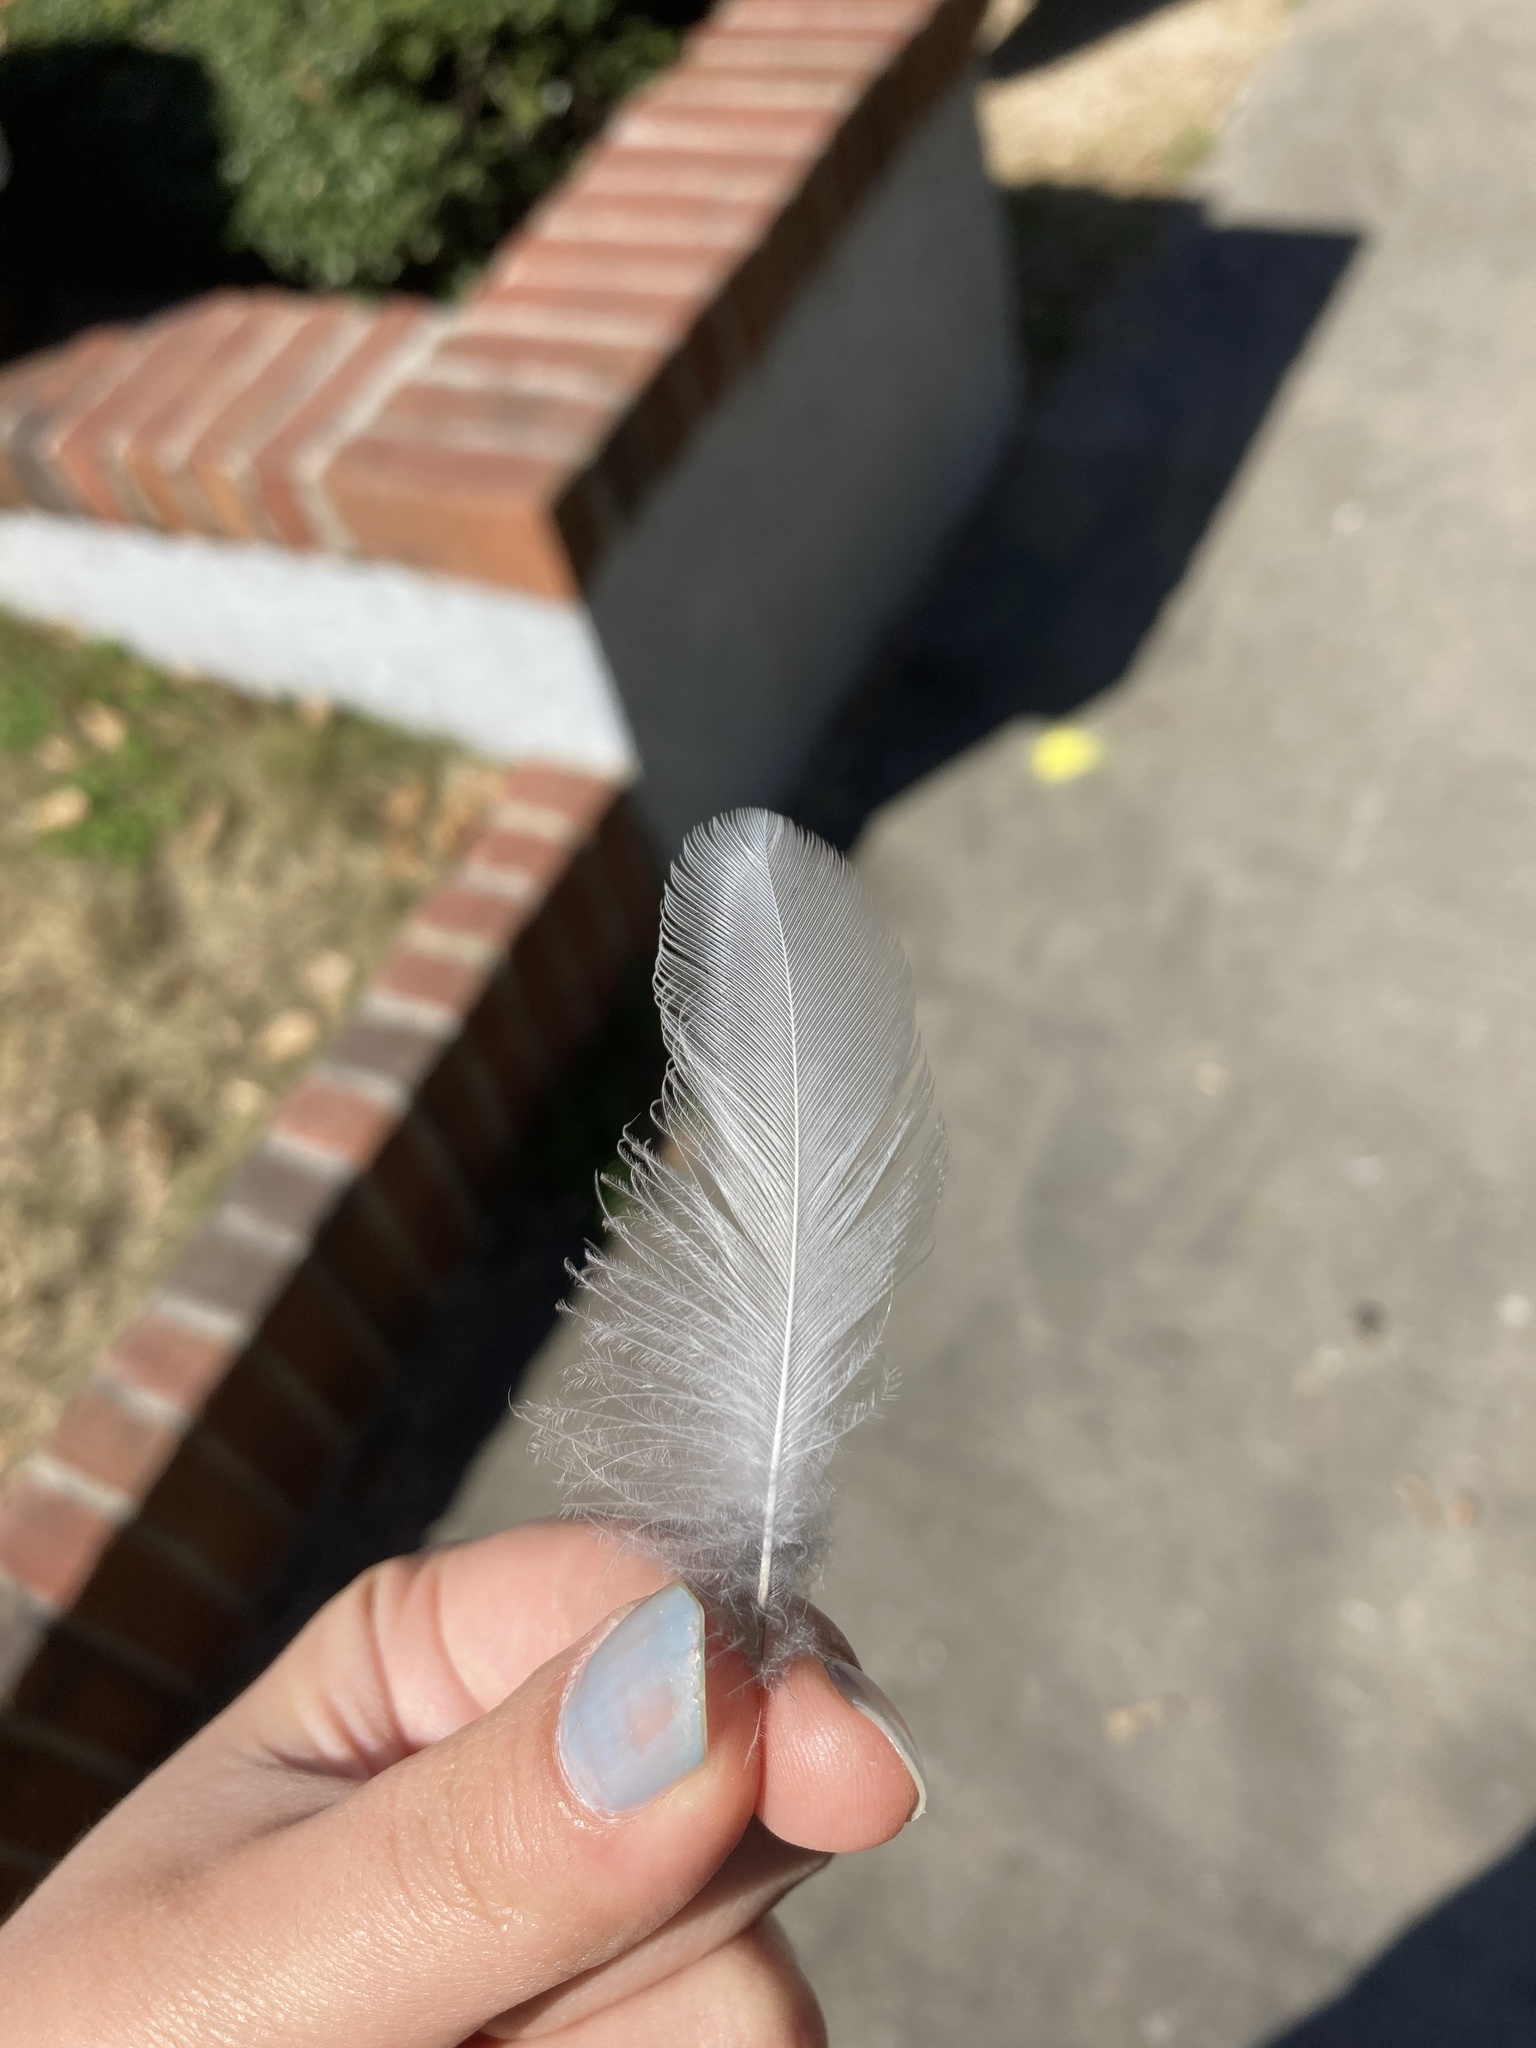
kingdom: Animalia
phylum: Chordata
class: Aves
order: Passeriformes
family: Corvidae
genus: Cyanocitta
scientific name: Cyanocitta cristata
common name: Blue jay
